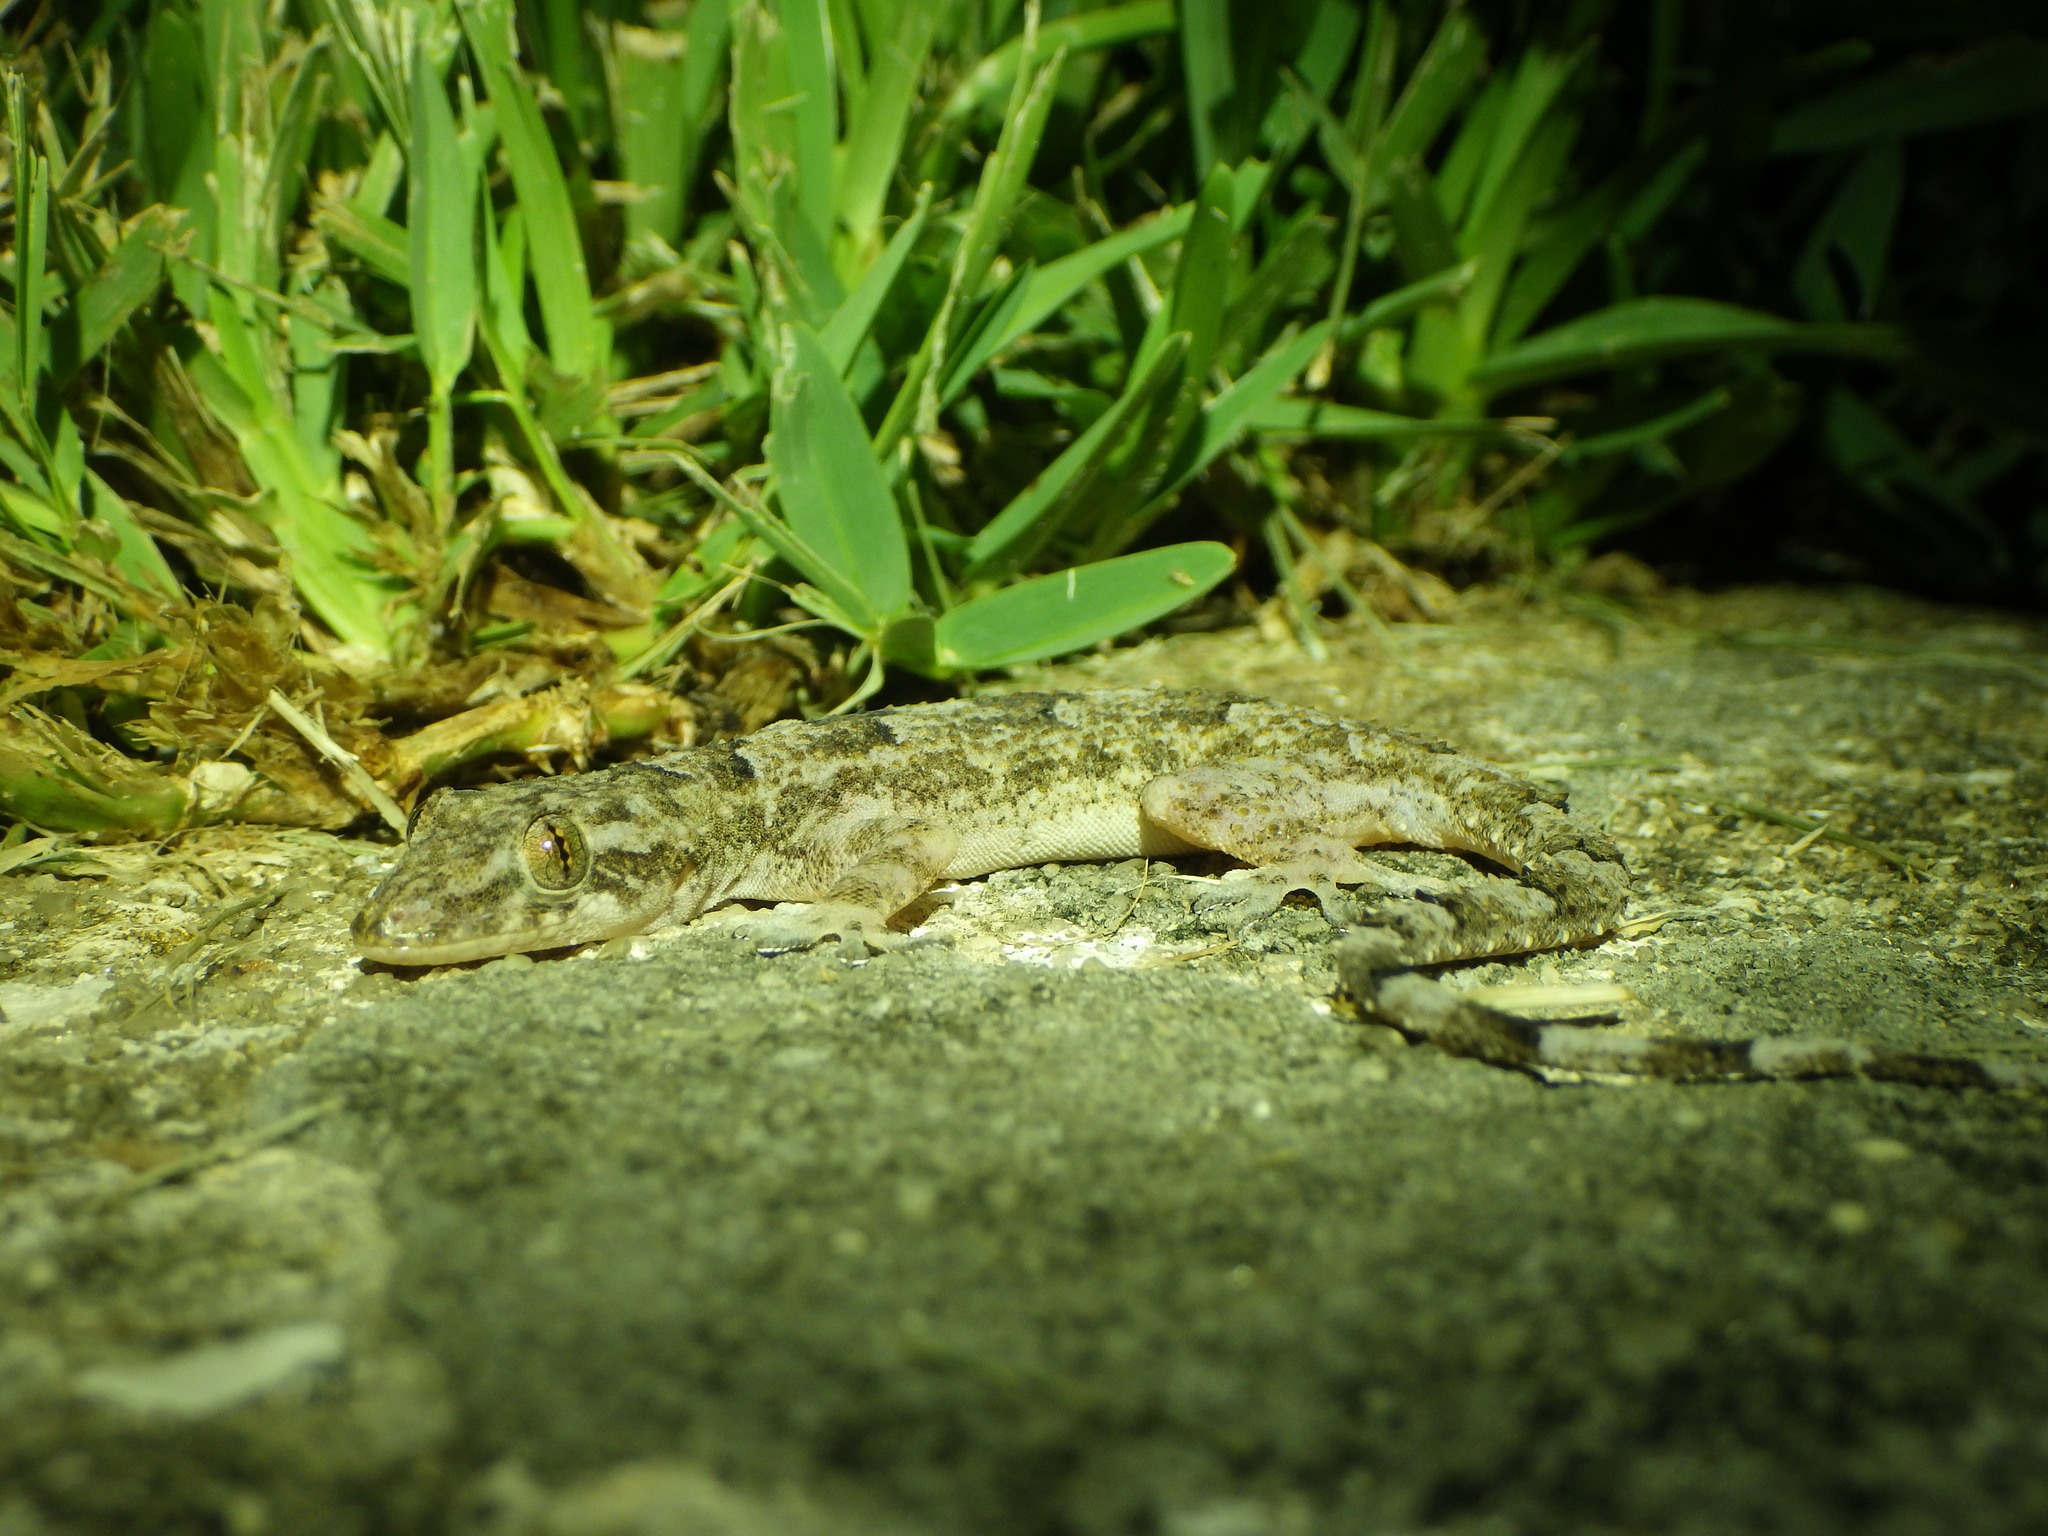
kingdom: Animalia
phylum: Chordata
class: Squamata
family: Gekkonidae
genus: Hemidactylus
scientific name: Hemidactylus mabouia
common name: House gecko
